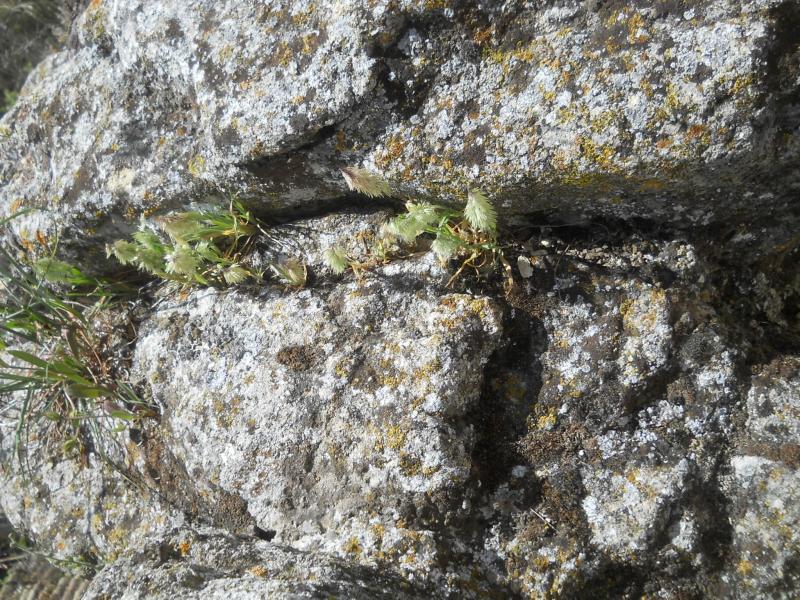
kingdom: Plantae
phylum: Tracheophyta
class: Liliopsida
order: Poales
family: Poaceae
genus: Lamarckia
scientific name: Lamarckia aurea
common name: Golden dog's-tail
